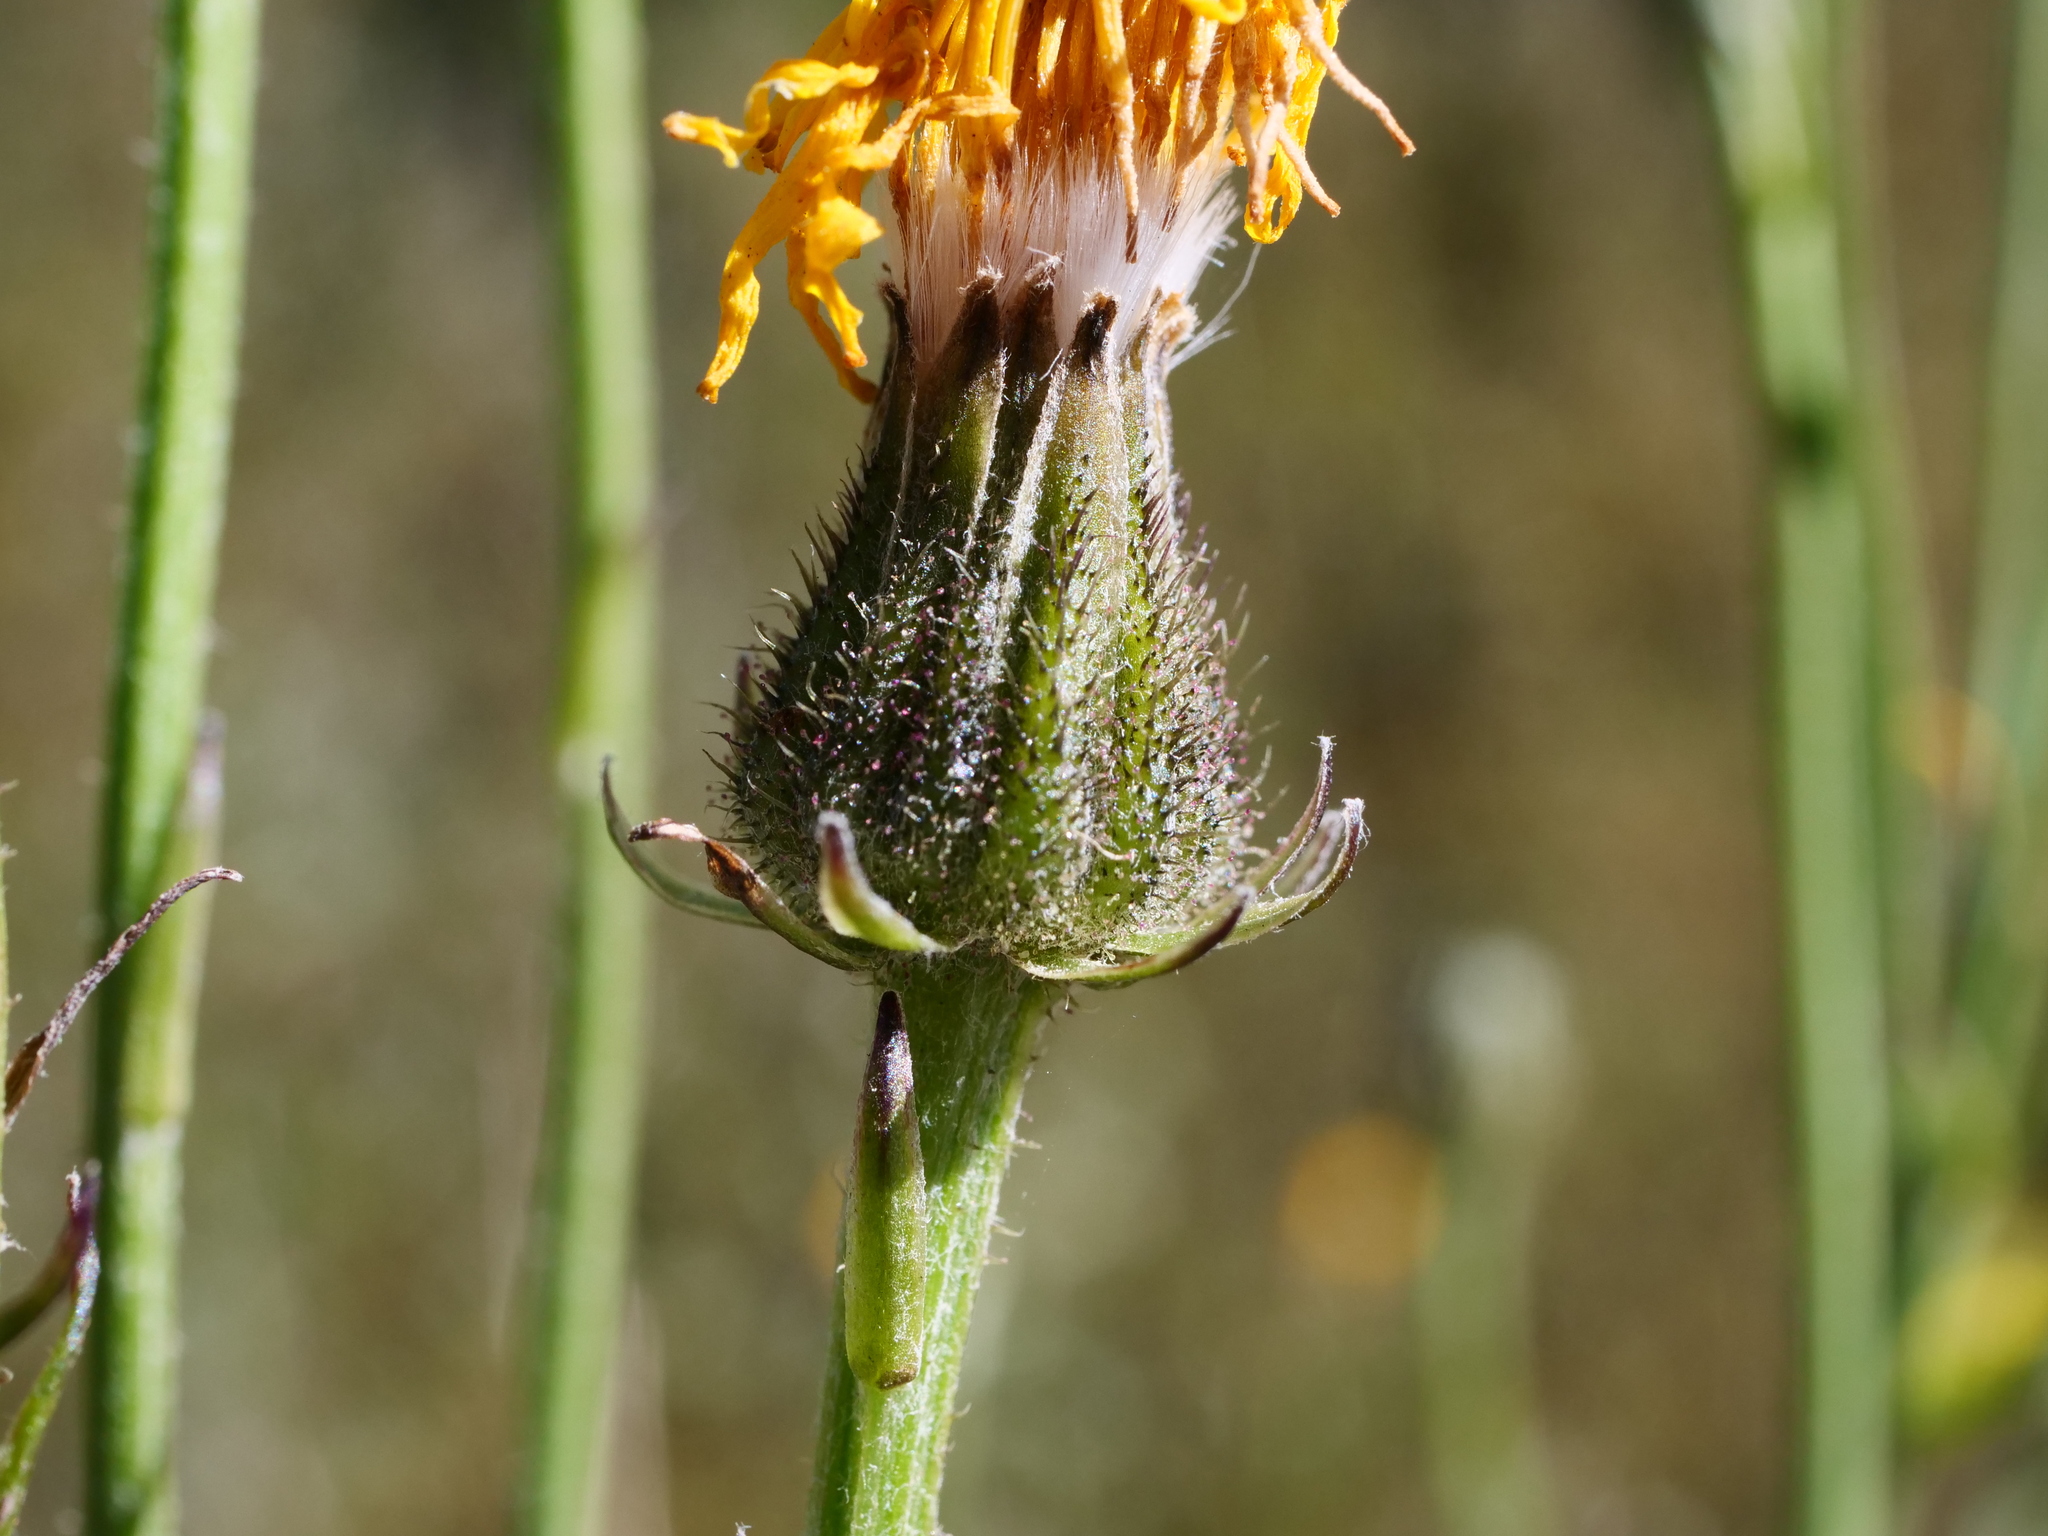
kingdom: Plantae
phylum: Tracheophyta
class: Magnoliopsida
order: Asterales
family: Asteraceae
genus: Crepis
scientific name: Crepis vesicaria
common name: Beaked hawksbeard
